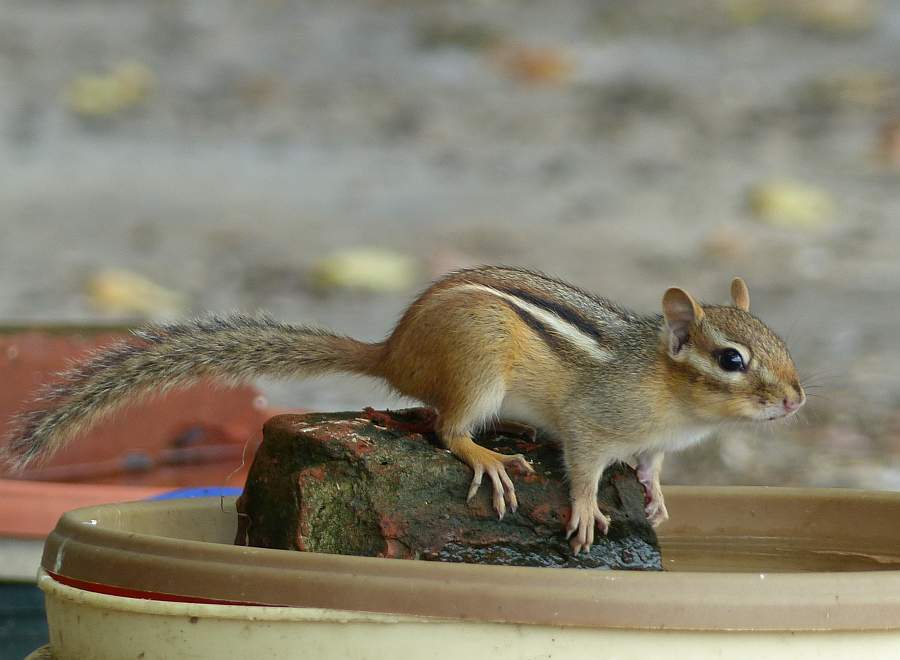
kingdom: Animalia
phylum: Chordata
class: Mammalia
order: Rodentia
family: Sciuridae
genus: Tamias
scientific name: Tamias striatus
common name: Eastern chipmunk
